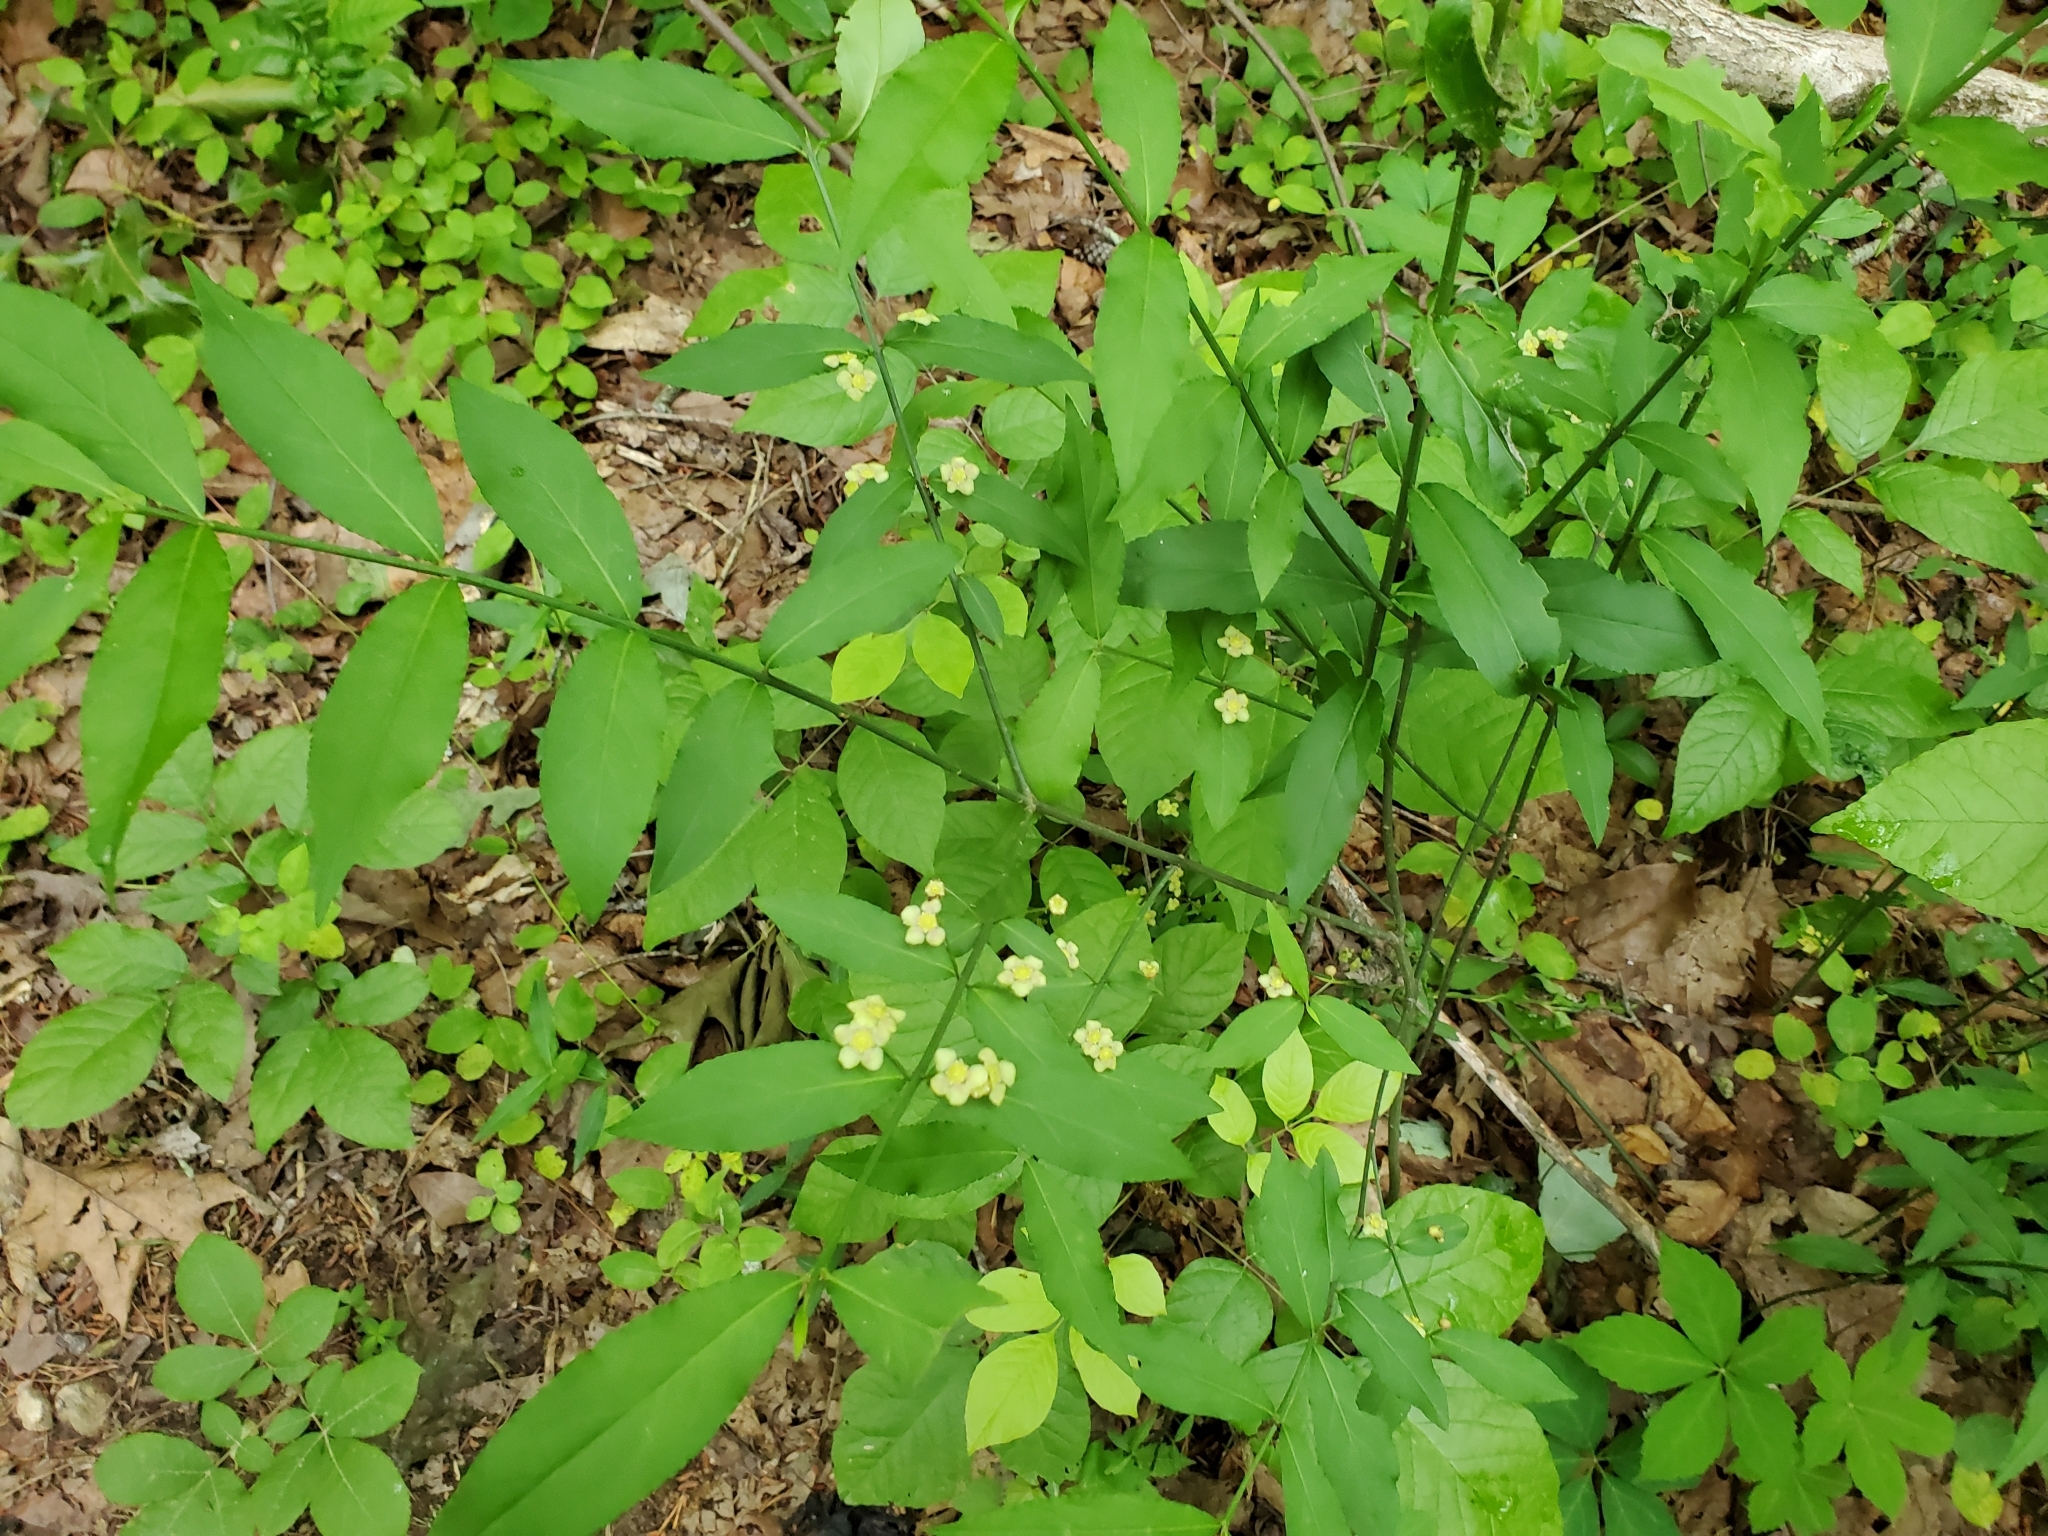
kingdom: Plantae
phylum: Tracheophyta
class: Magnoliopsida
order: Celastrales
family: Celastraceae
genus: Euonymus
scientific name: Euonymus americanus
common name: Bursting-heart
